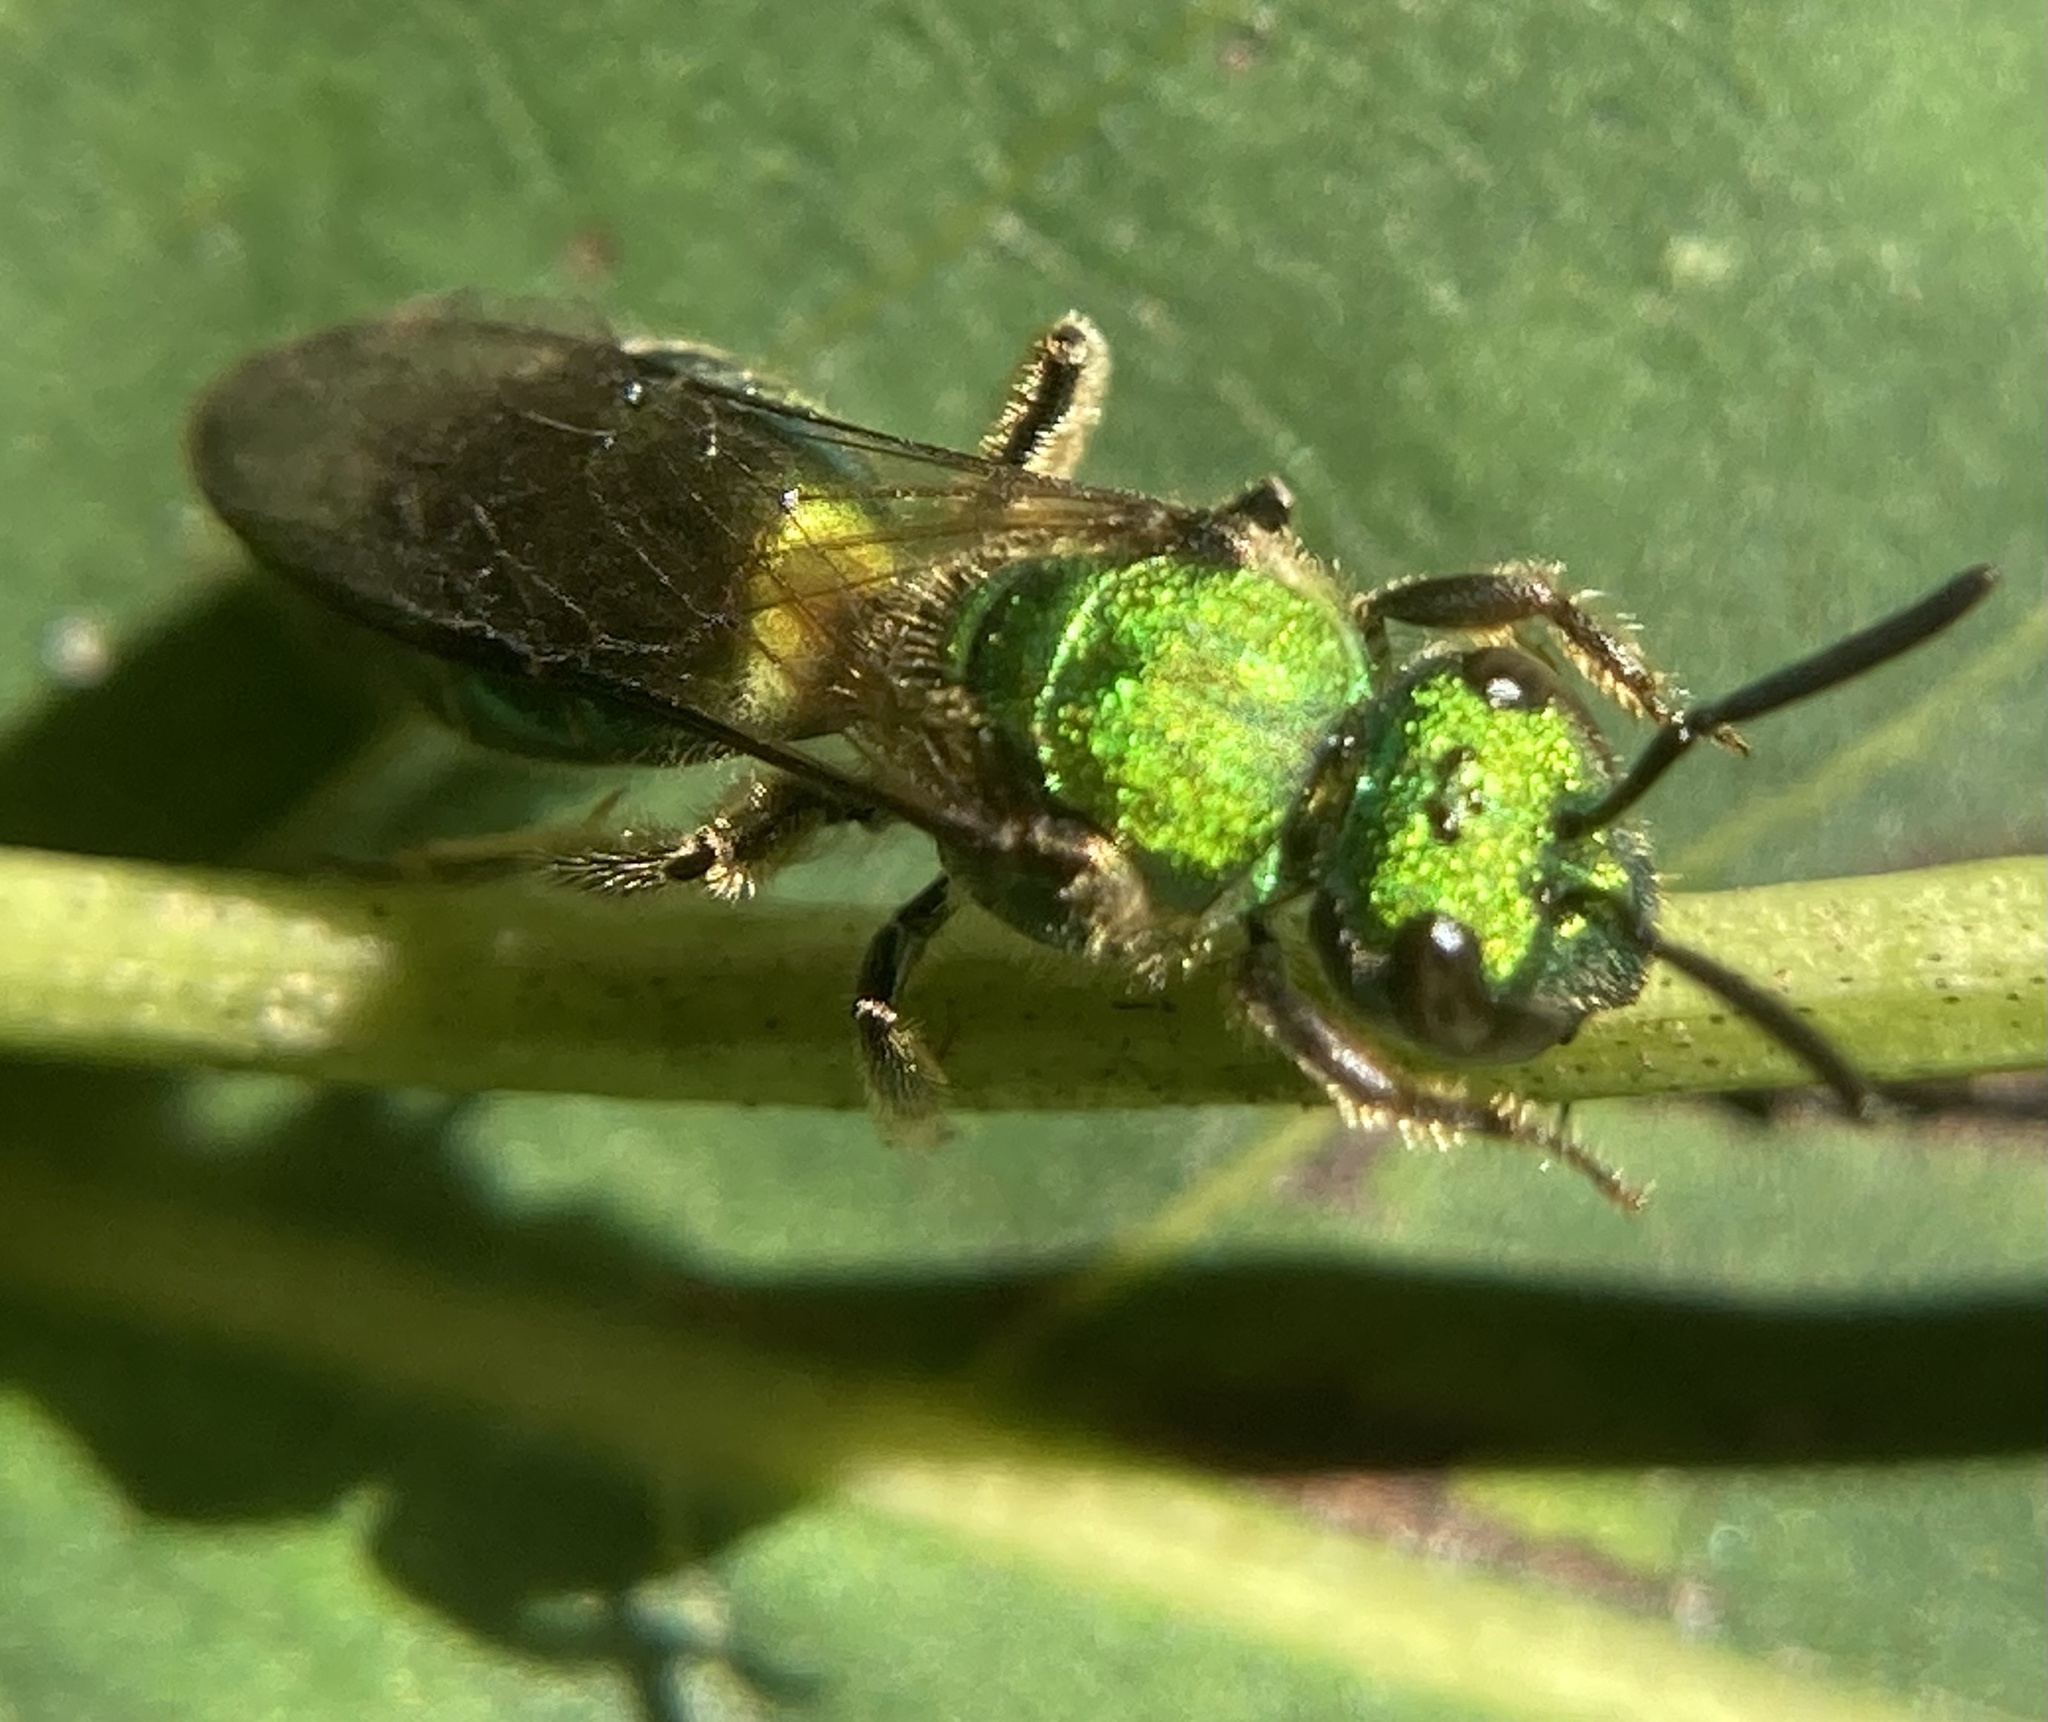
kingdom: Animalia
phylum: Arthropoda
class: Insecta
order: Hymenoptera
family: Halictidae
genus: Augochlora
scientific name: Augochlora pura
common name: Pure green sweat bee
